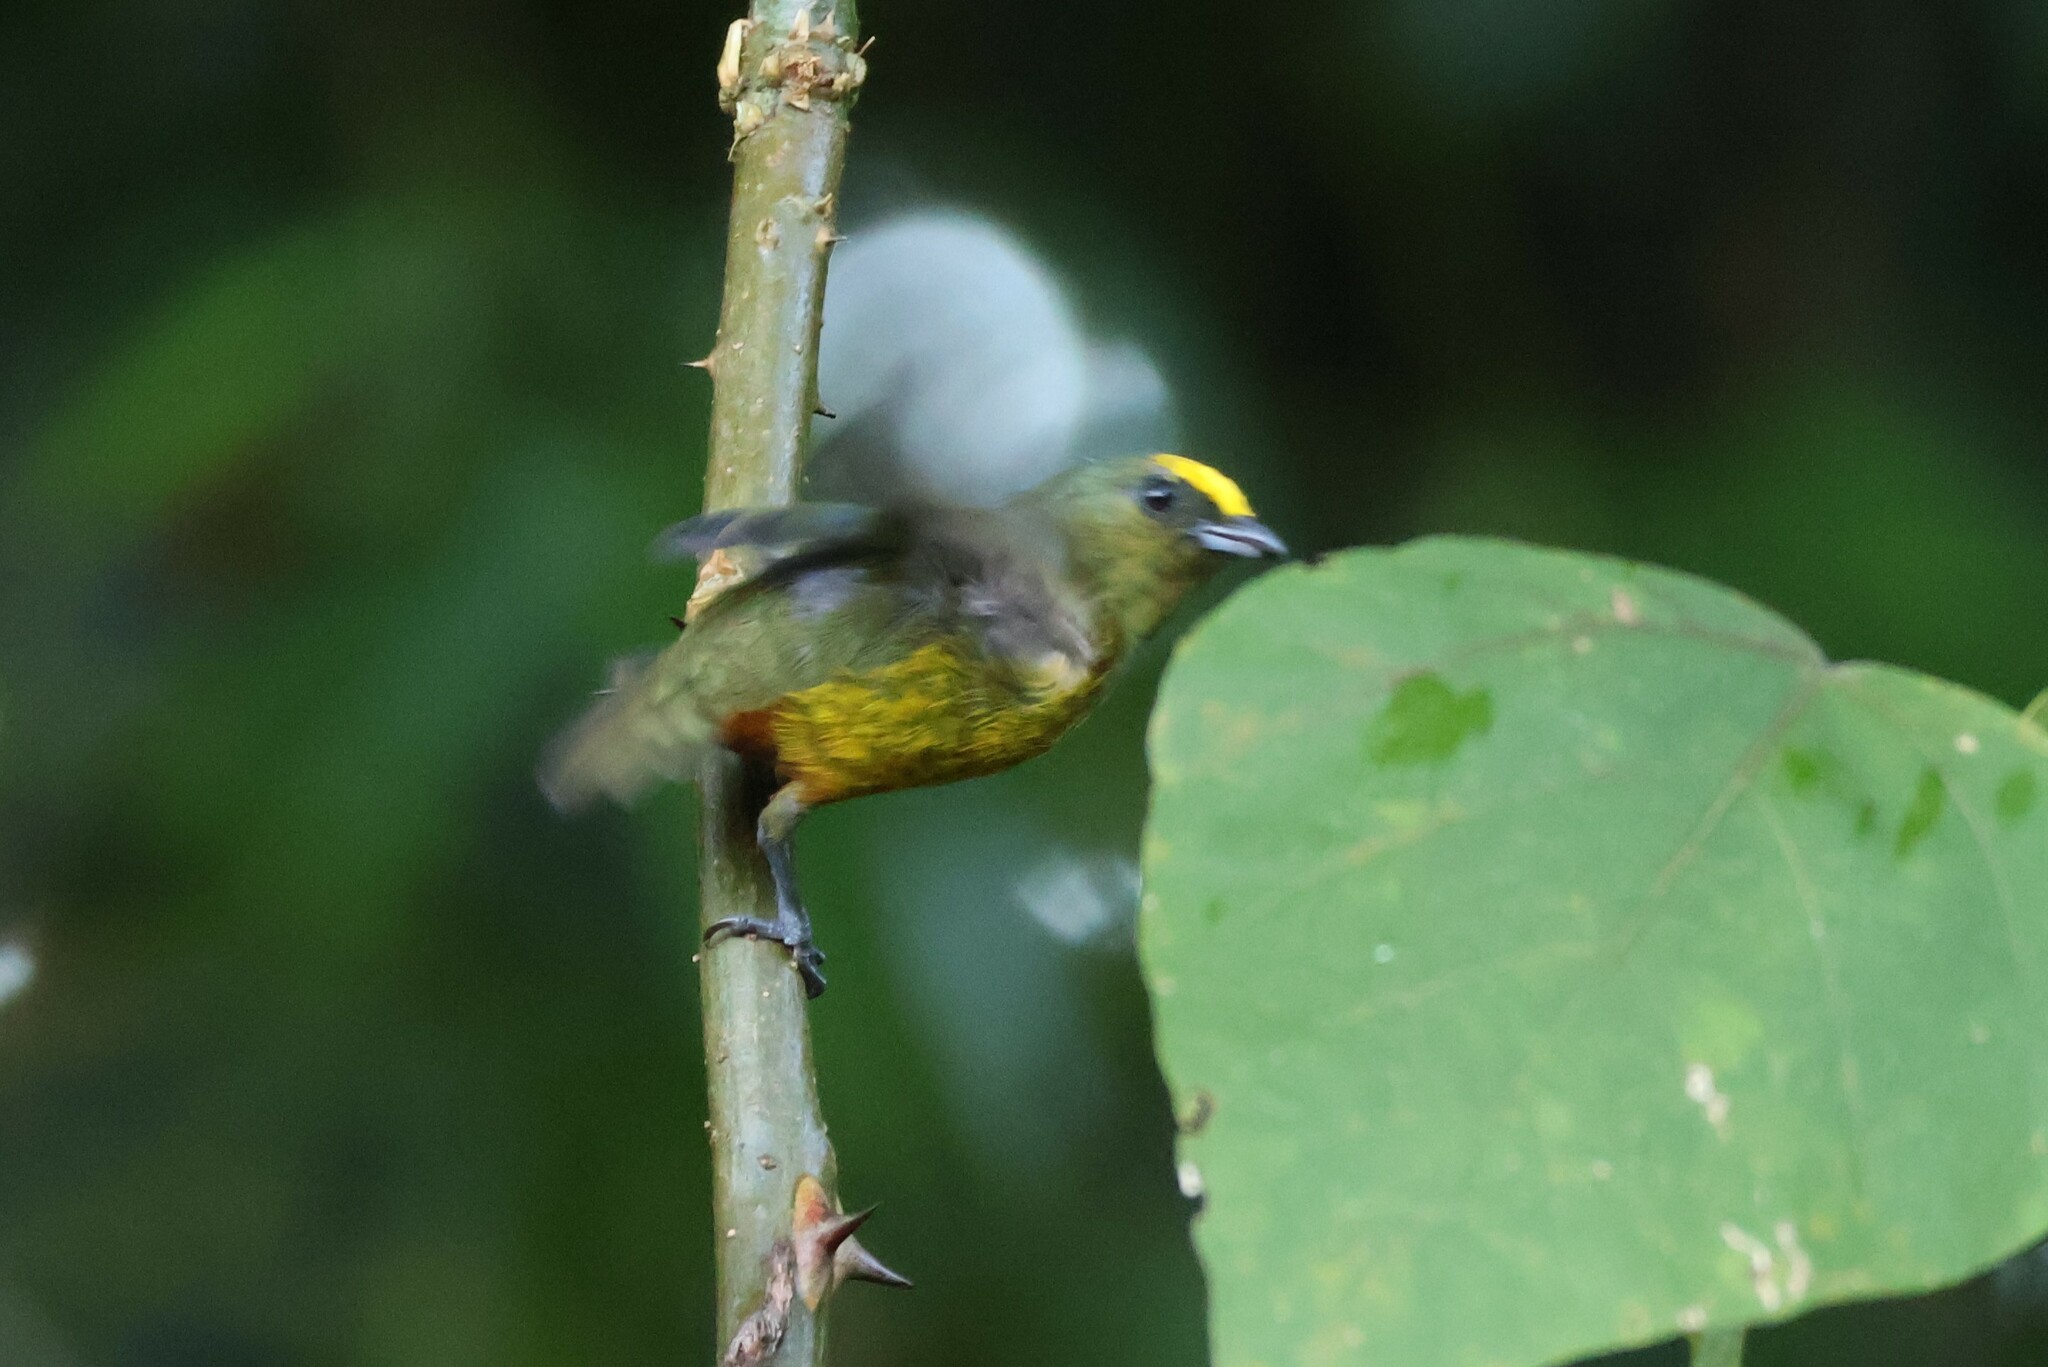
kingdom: Animalia
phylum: Chordata
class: Aves
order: Passeriformes
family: Fringillidae
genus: Euphonia
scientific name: Euphonia gouldi
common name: Olive-backed euphonia
